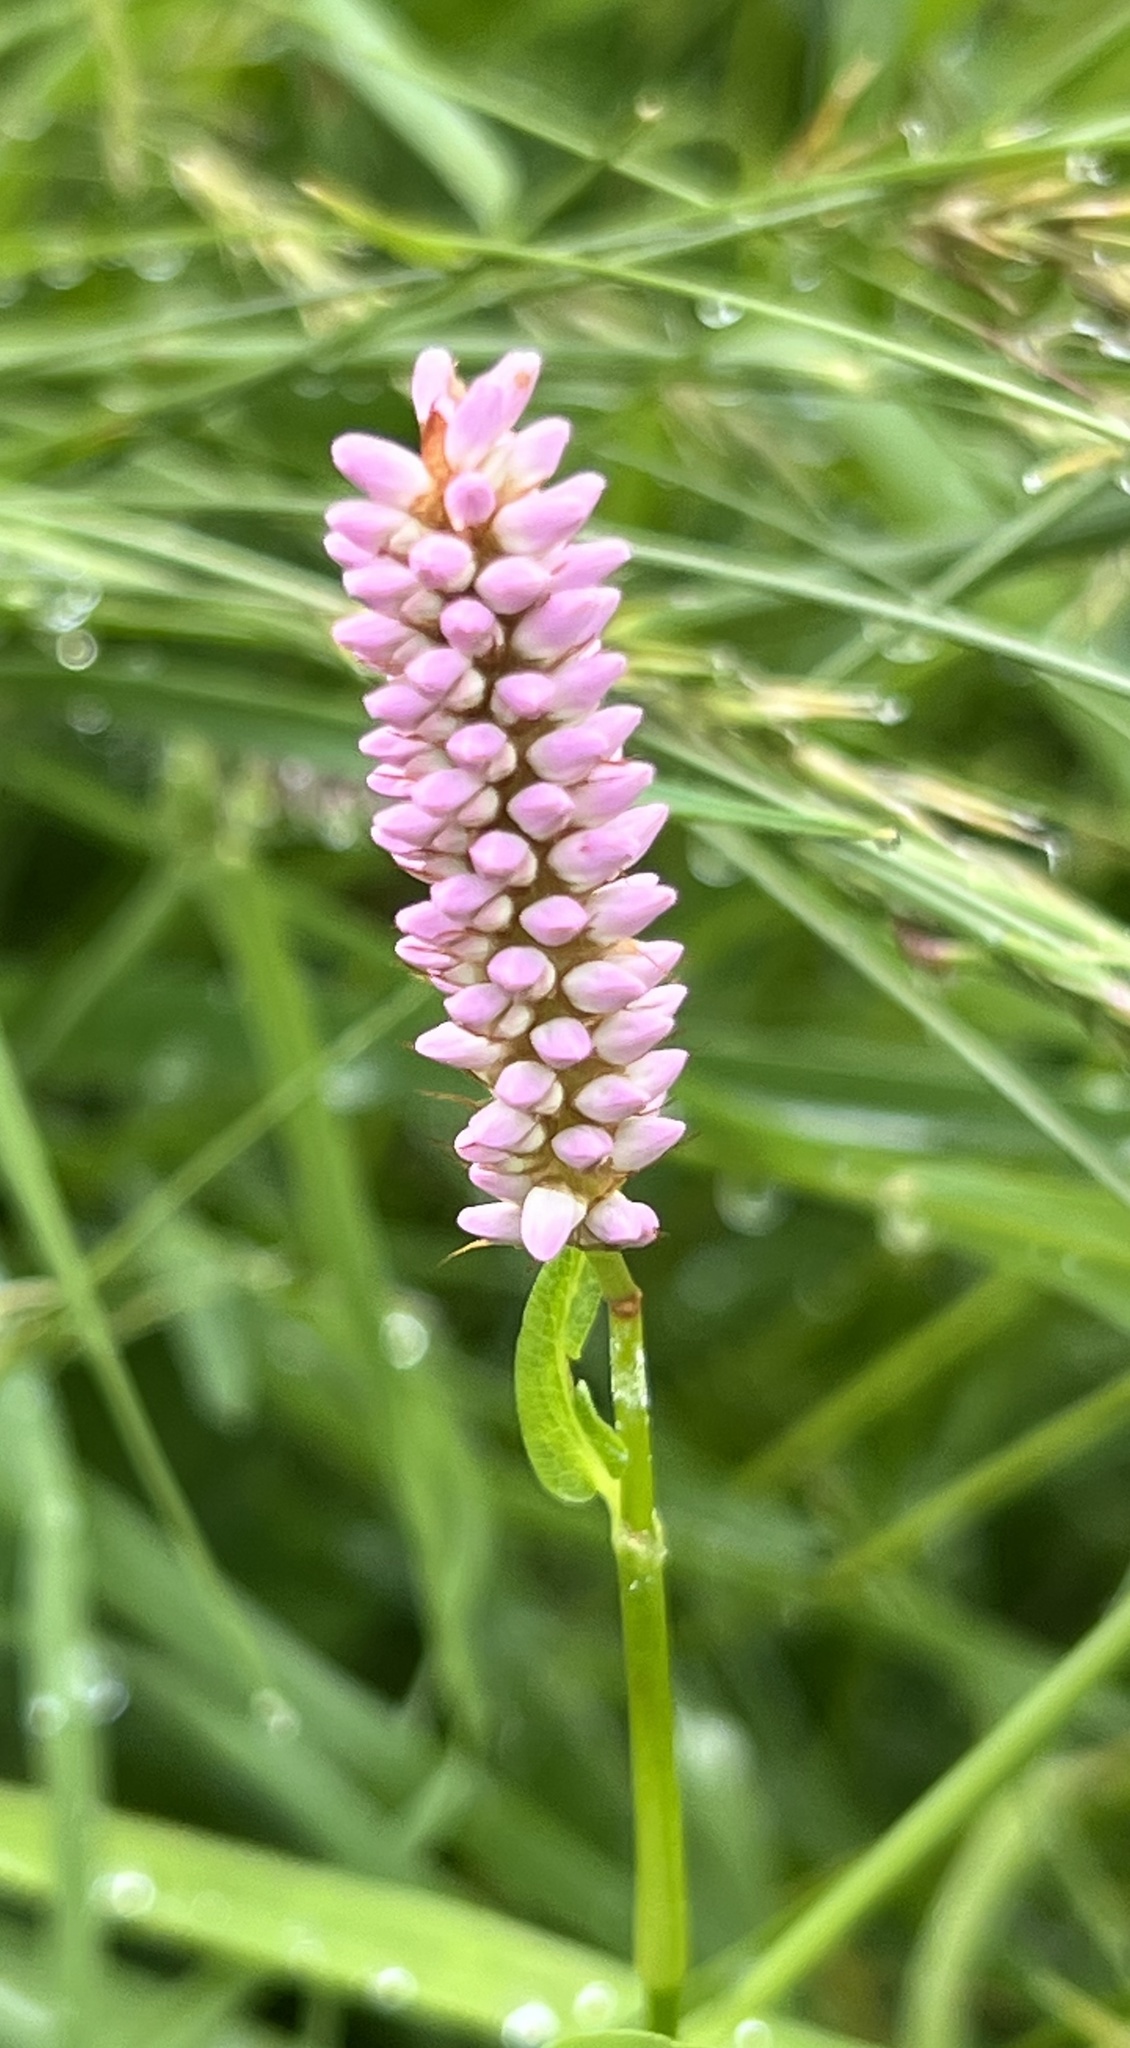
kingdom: Plantae
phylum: Tracheophyta
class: Magnoliopsida
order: Caryophyllales
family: Polygonaceae
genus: Bistorta
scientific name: Bistorta officinalis
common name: Common bistort
